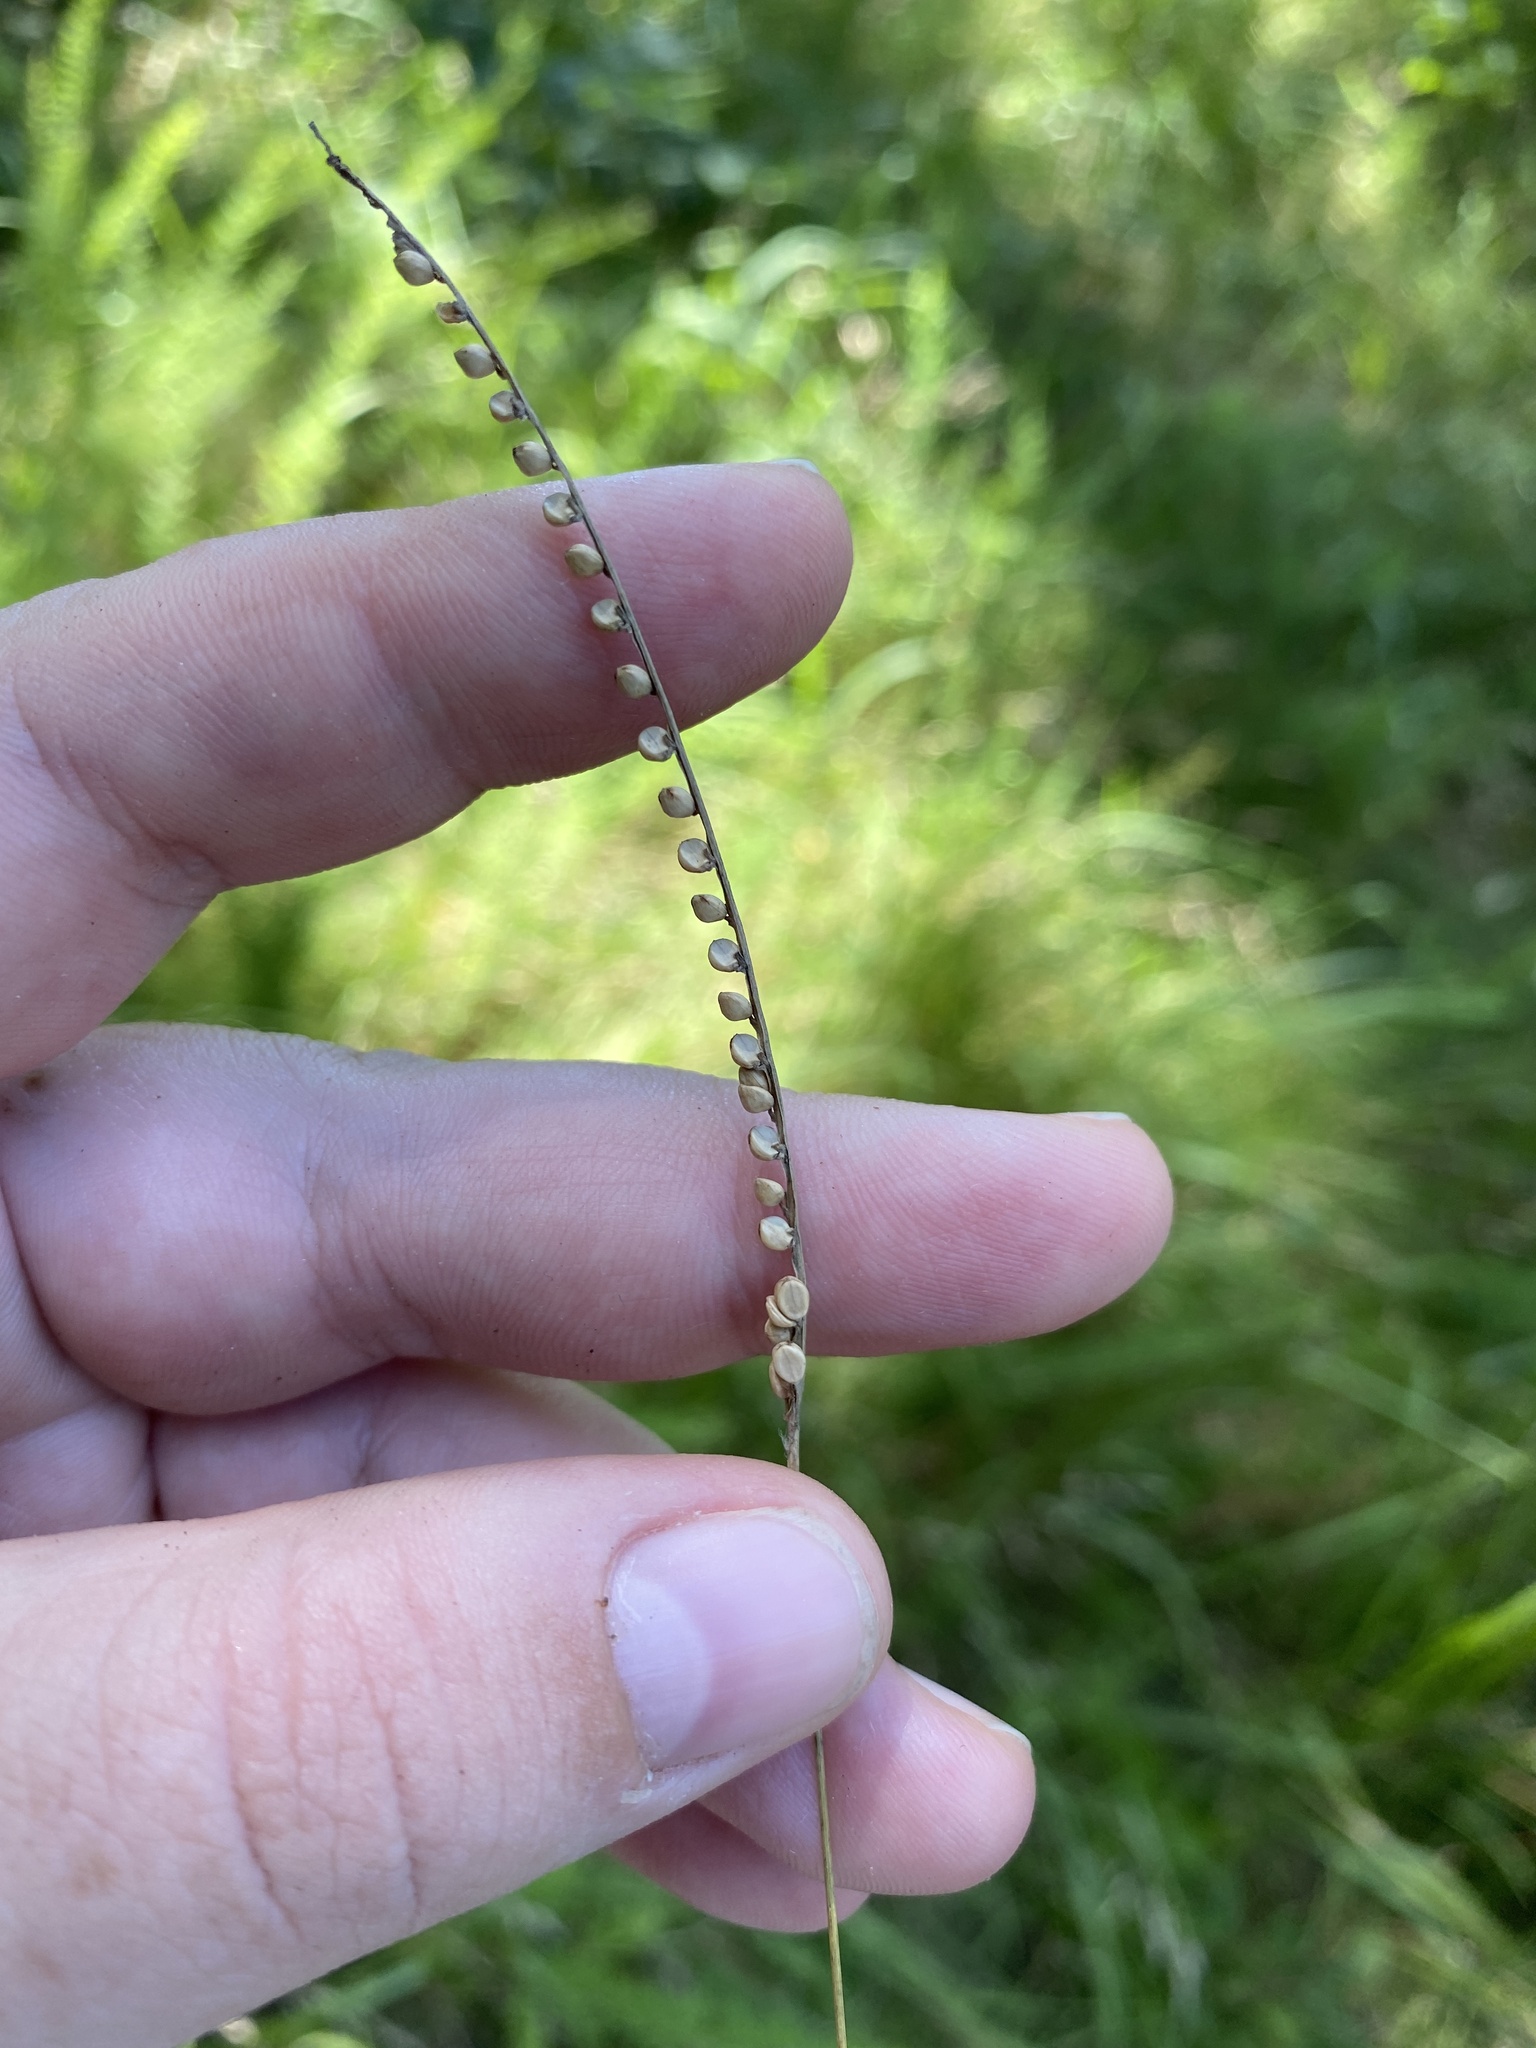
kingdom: Plantae
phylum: Tracheophyta
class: Liliopsida
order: Poales
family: Poaceae
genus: Paspalum
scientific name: Paspalum setaceum
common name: Slender paspalum
